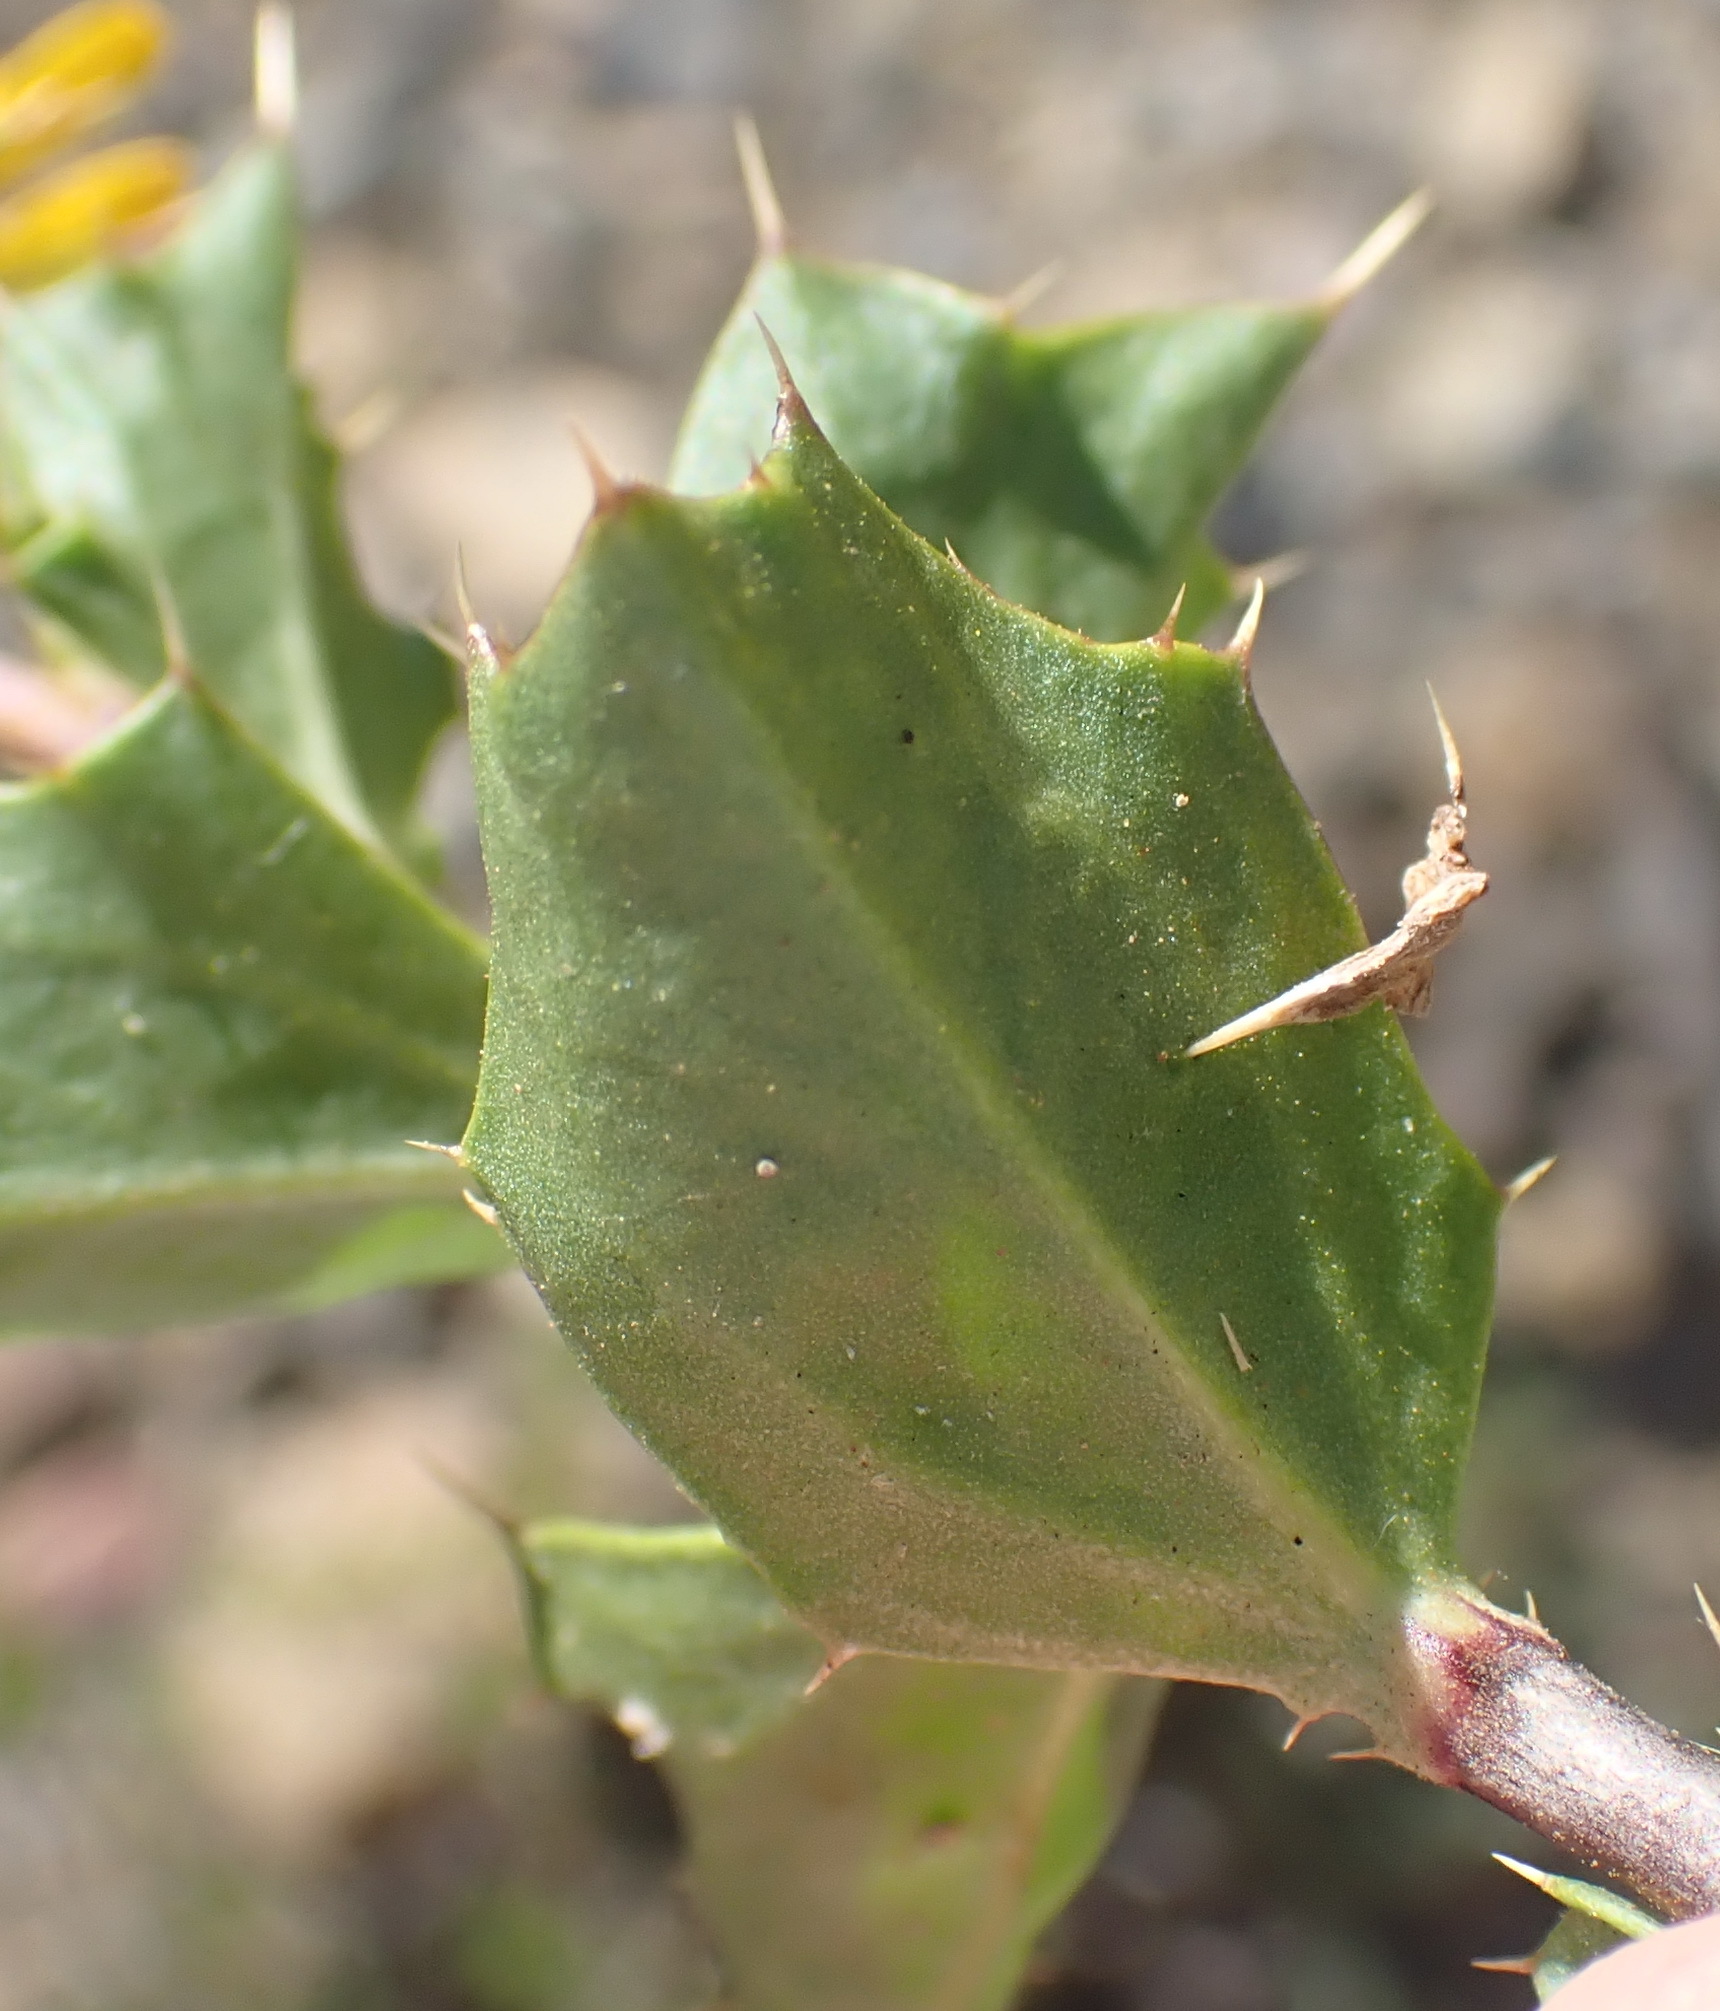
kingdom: Plantae
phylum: Tracheophyta
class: Magnoliopsida
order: Asterales
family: Asteraceae
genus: Cuspidia
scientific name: Cuspidia cernua
